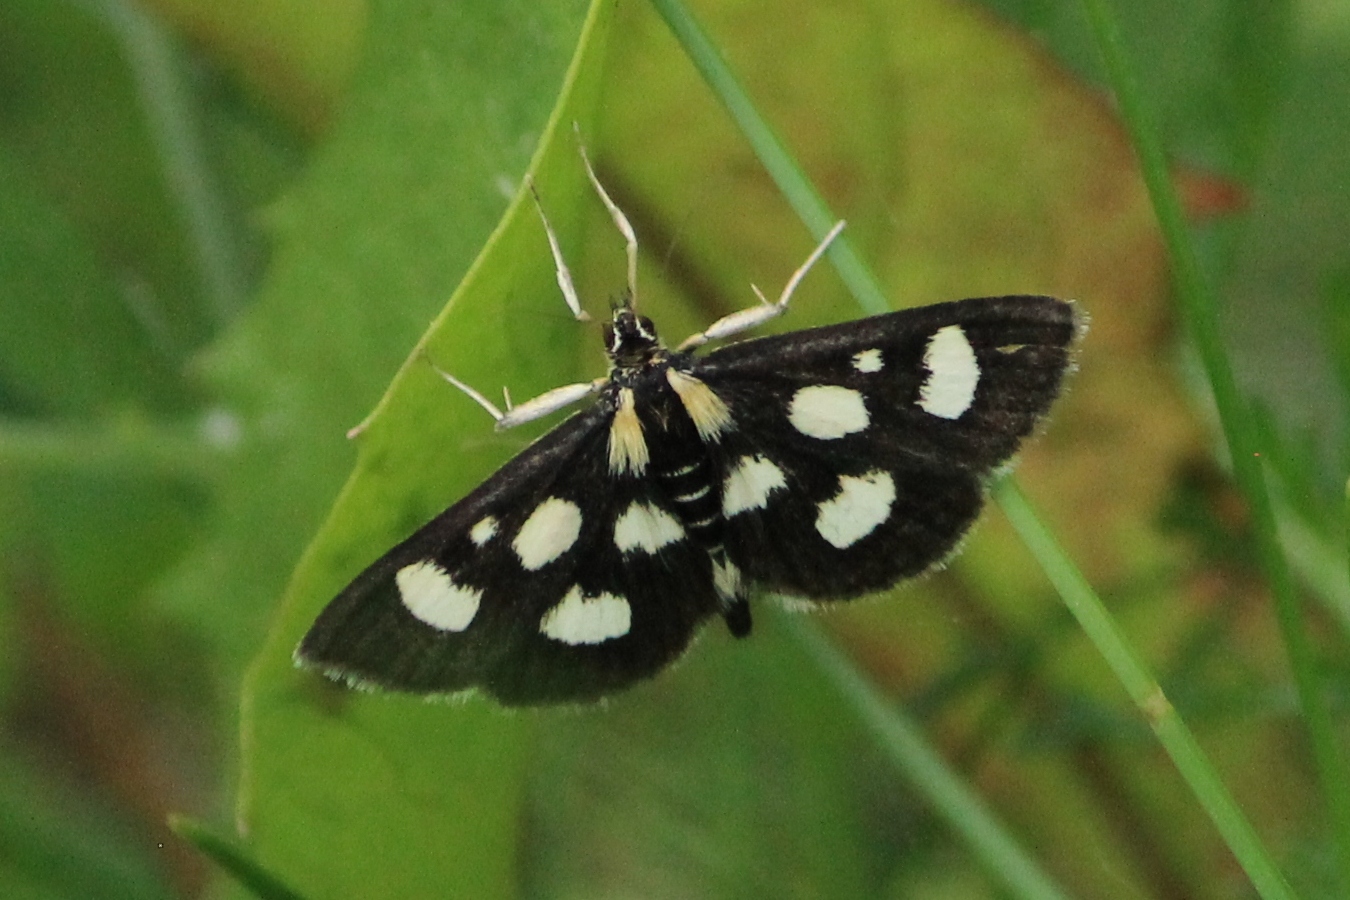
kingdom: Animalia
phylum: Arthropoda
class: Insecta
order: Lepidoptera
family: Crambidae
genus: Anania
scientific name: Anania funebris
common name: White-spotted sable moth
